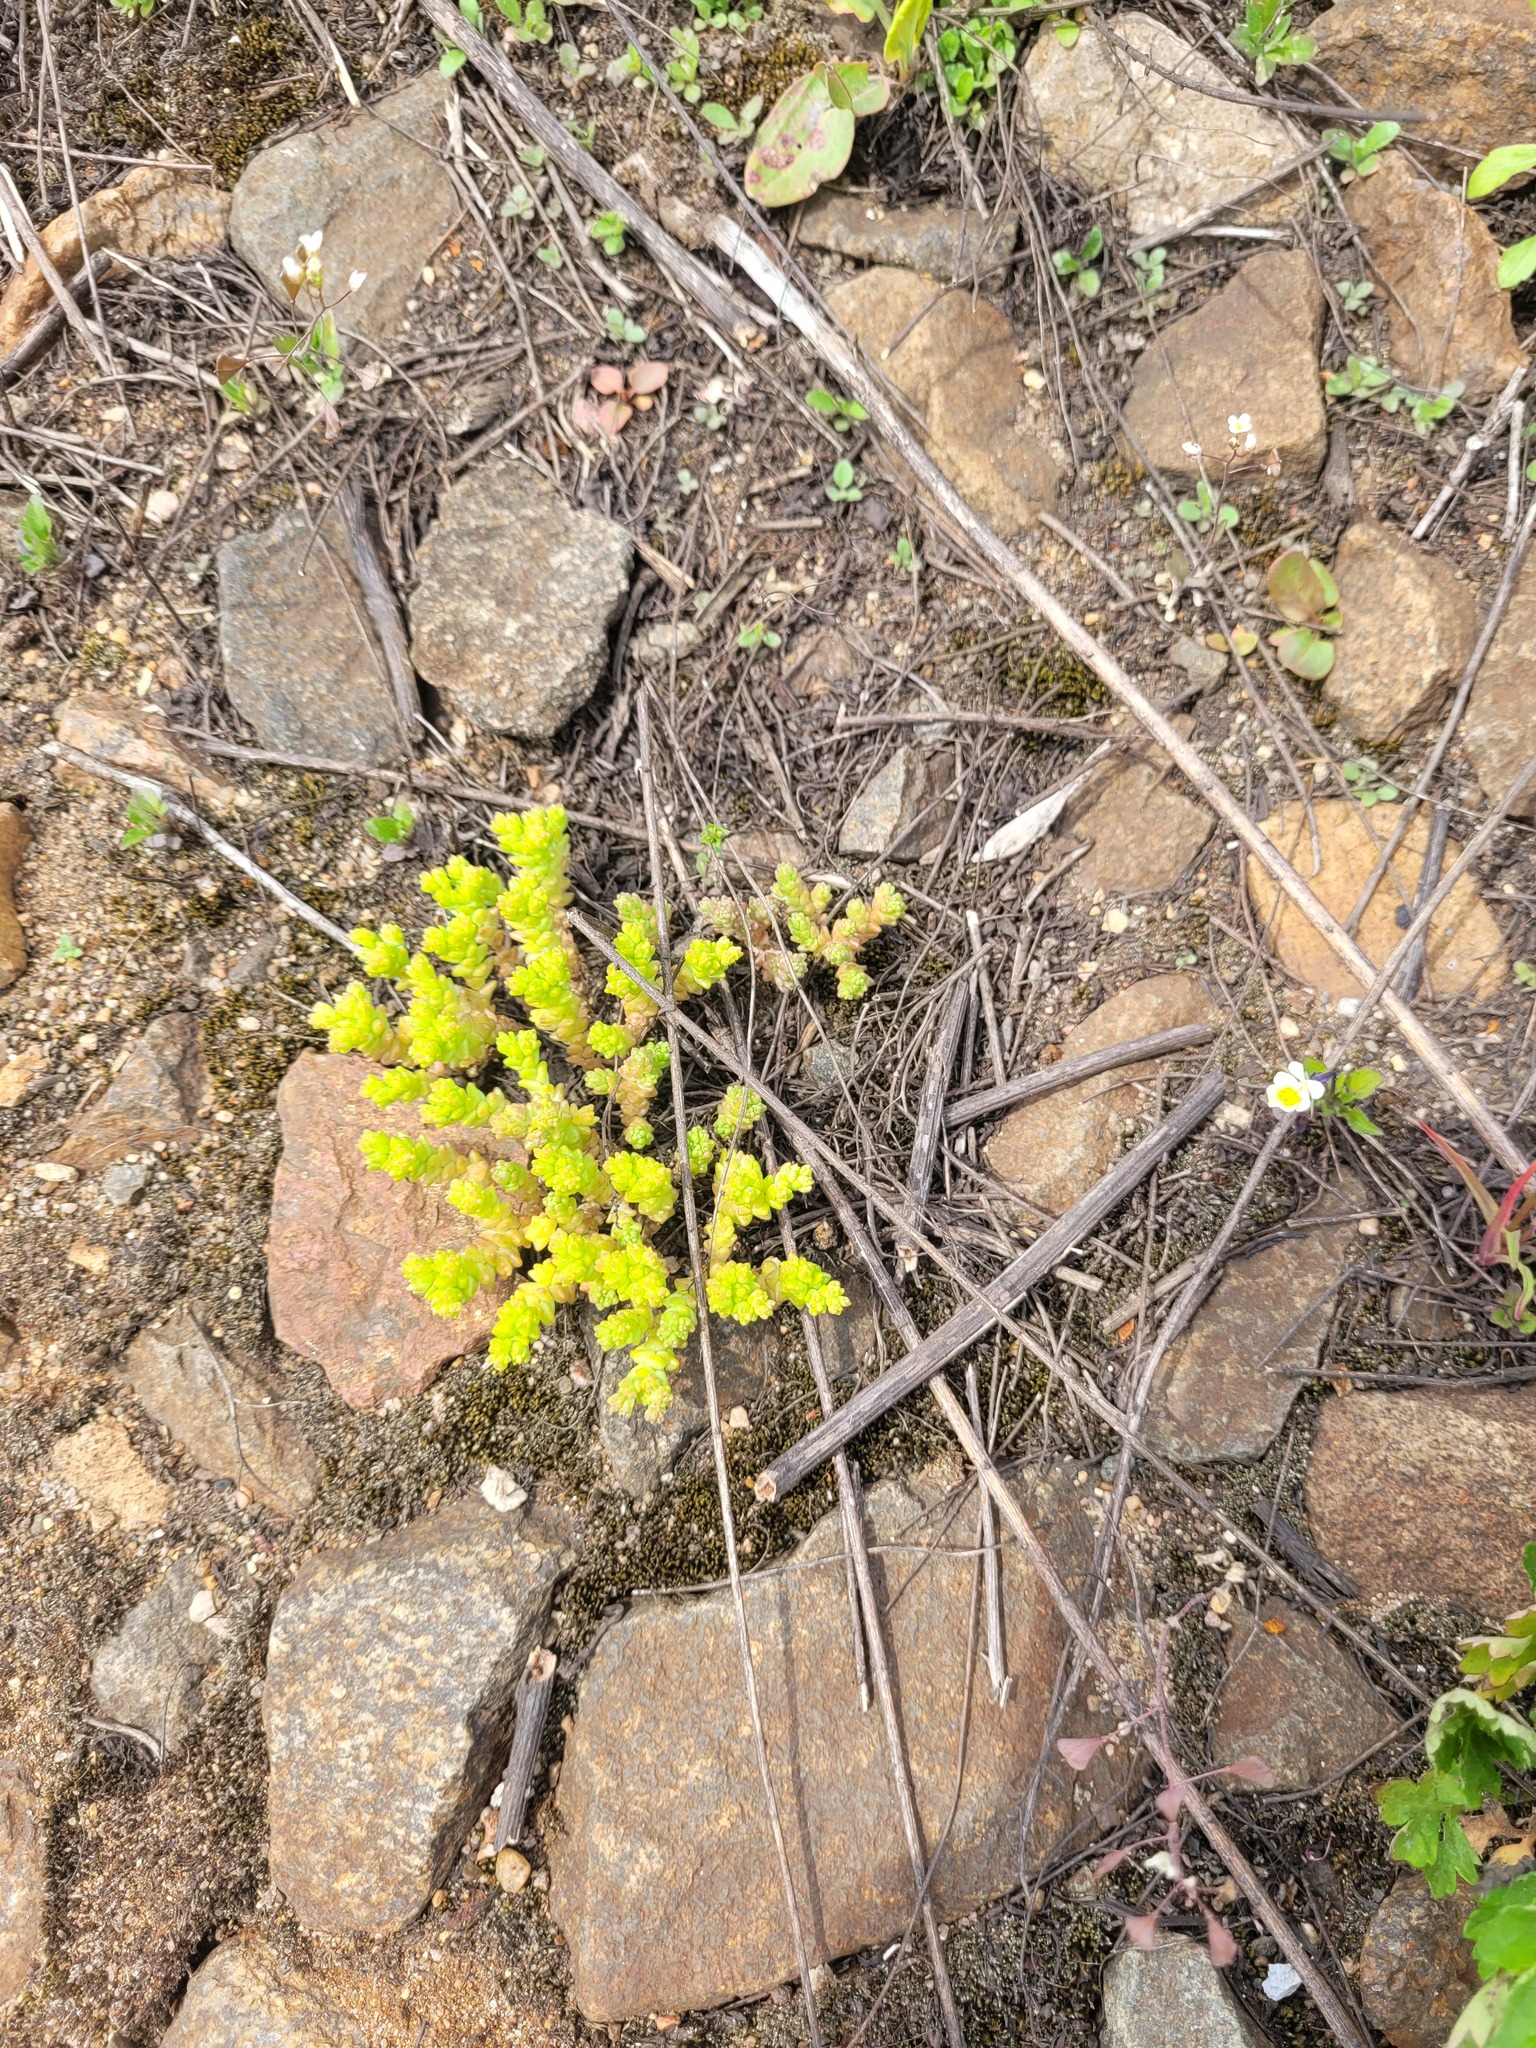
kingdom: Plantae
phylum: Tracheophyta
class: Magnoliopsida
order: Saxifragales
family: Crassulaceae
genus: Sedum
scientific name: Sedum acre
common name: Biting stonecrop
